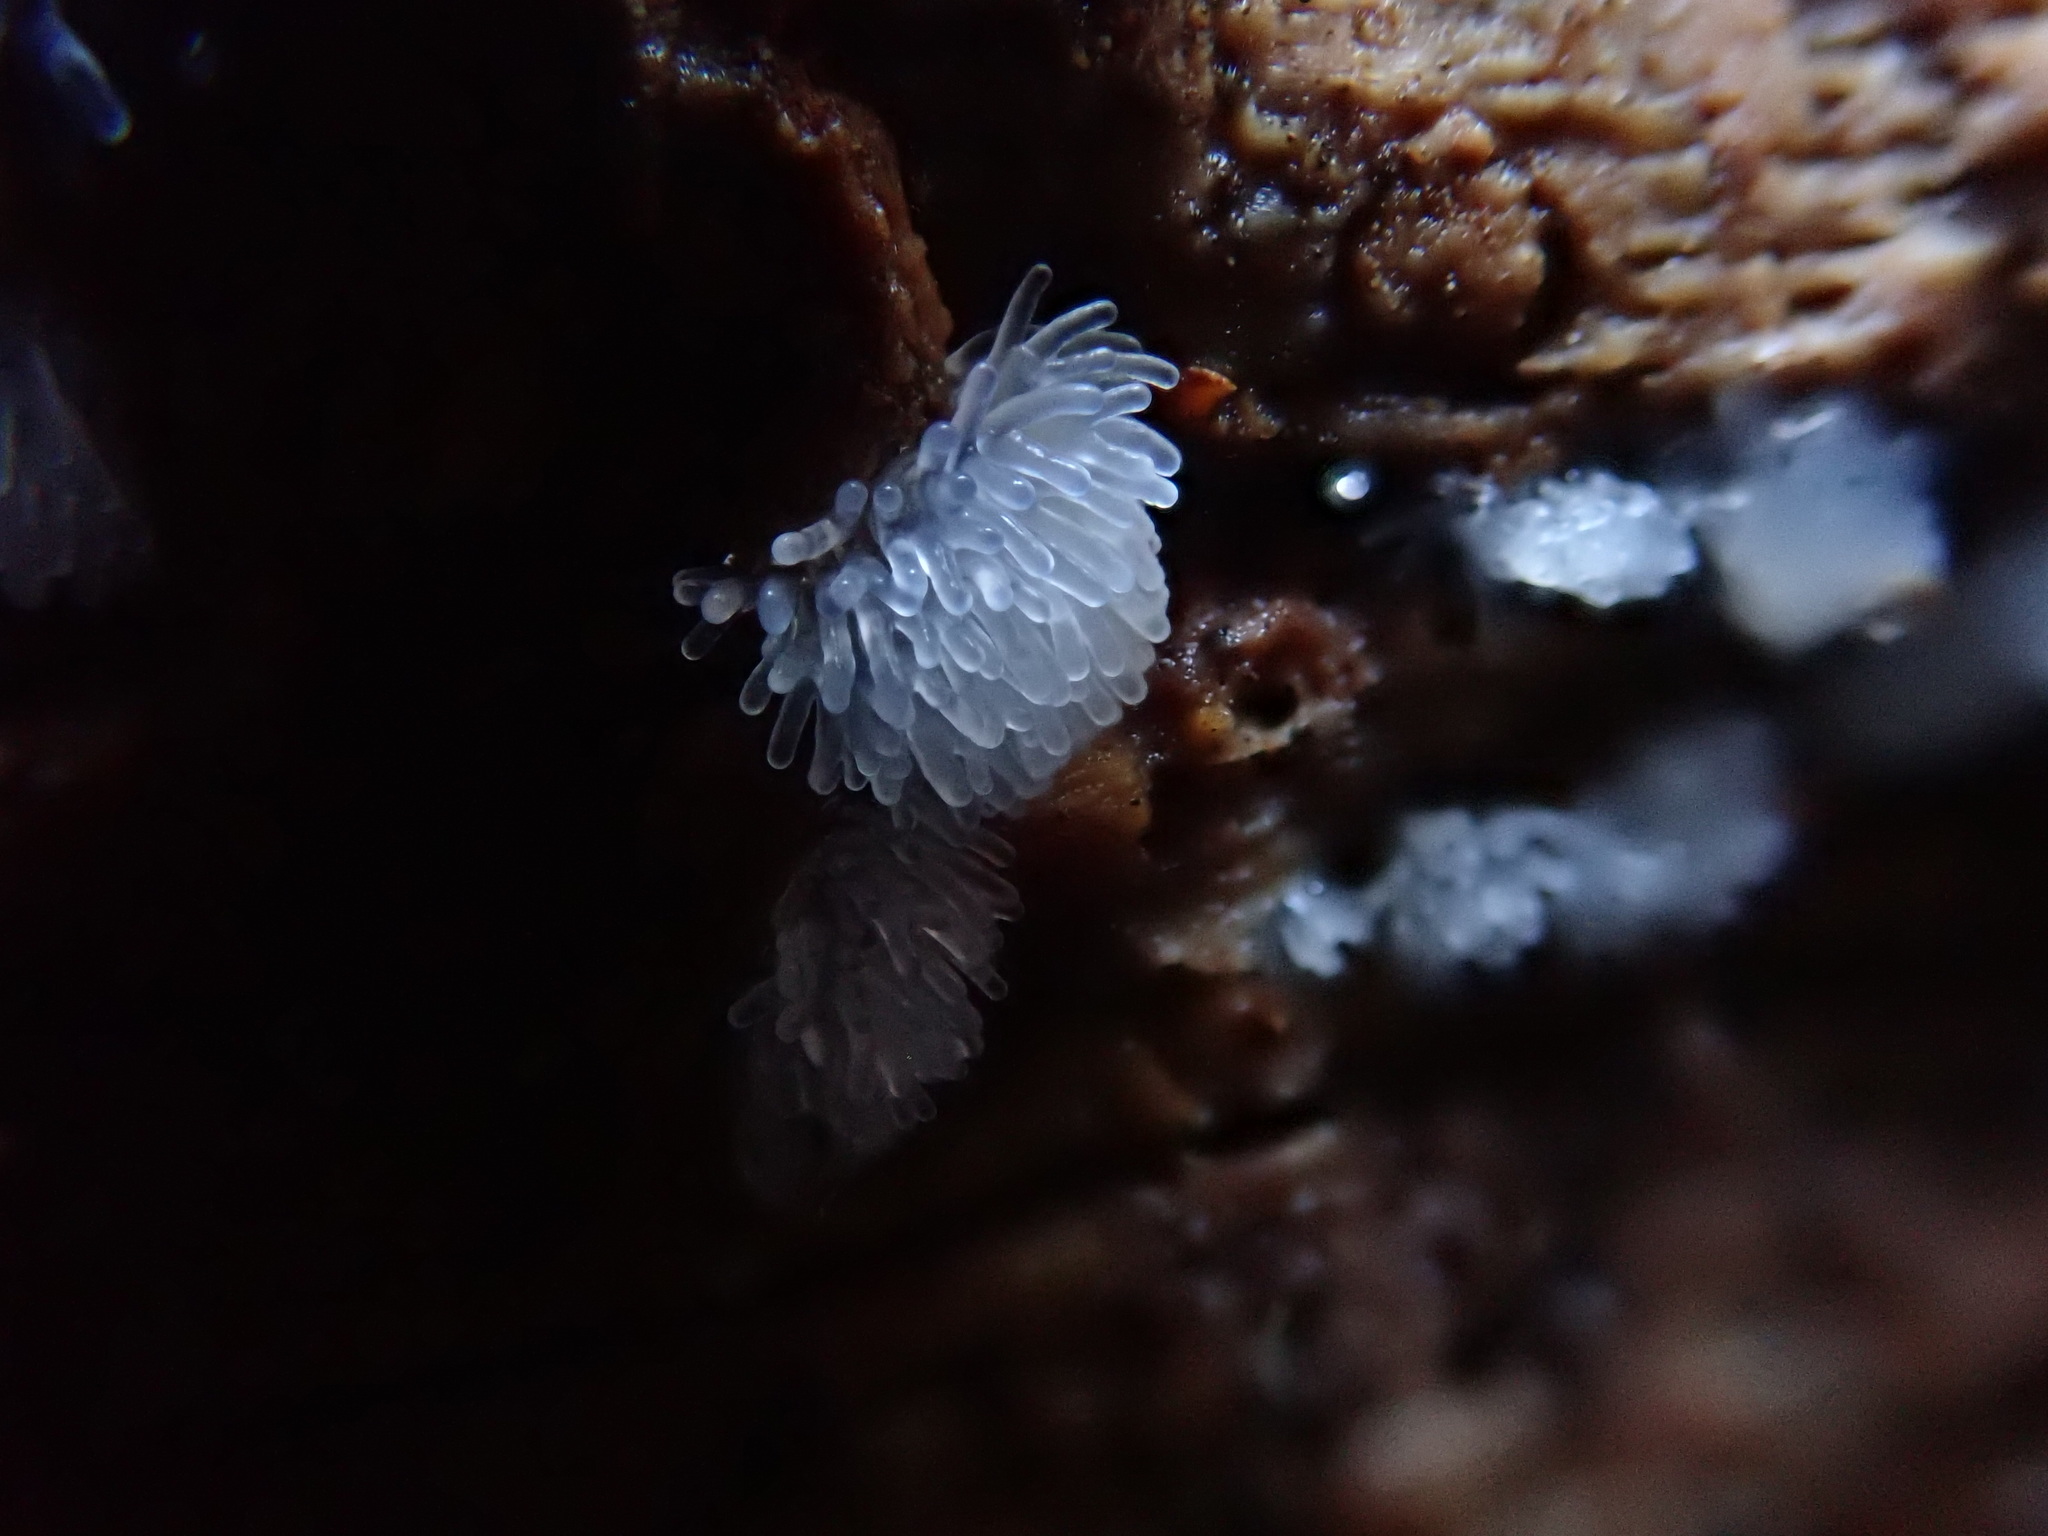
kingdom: Protozoa
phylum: Mycetozoa
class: Protosteliomycetes
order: Ceratiomyxales
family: Ceratiomyxaceae
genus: Ceratiomyxa
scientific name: Ceratiomyxa fruticulosa
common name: Honeycomb coral slime mold
